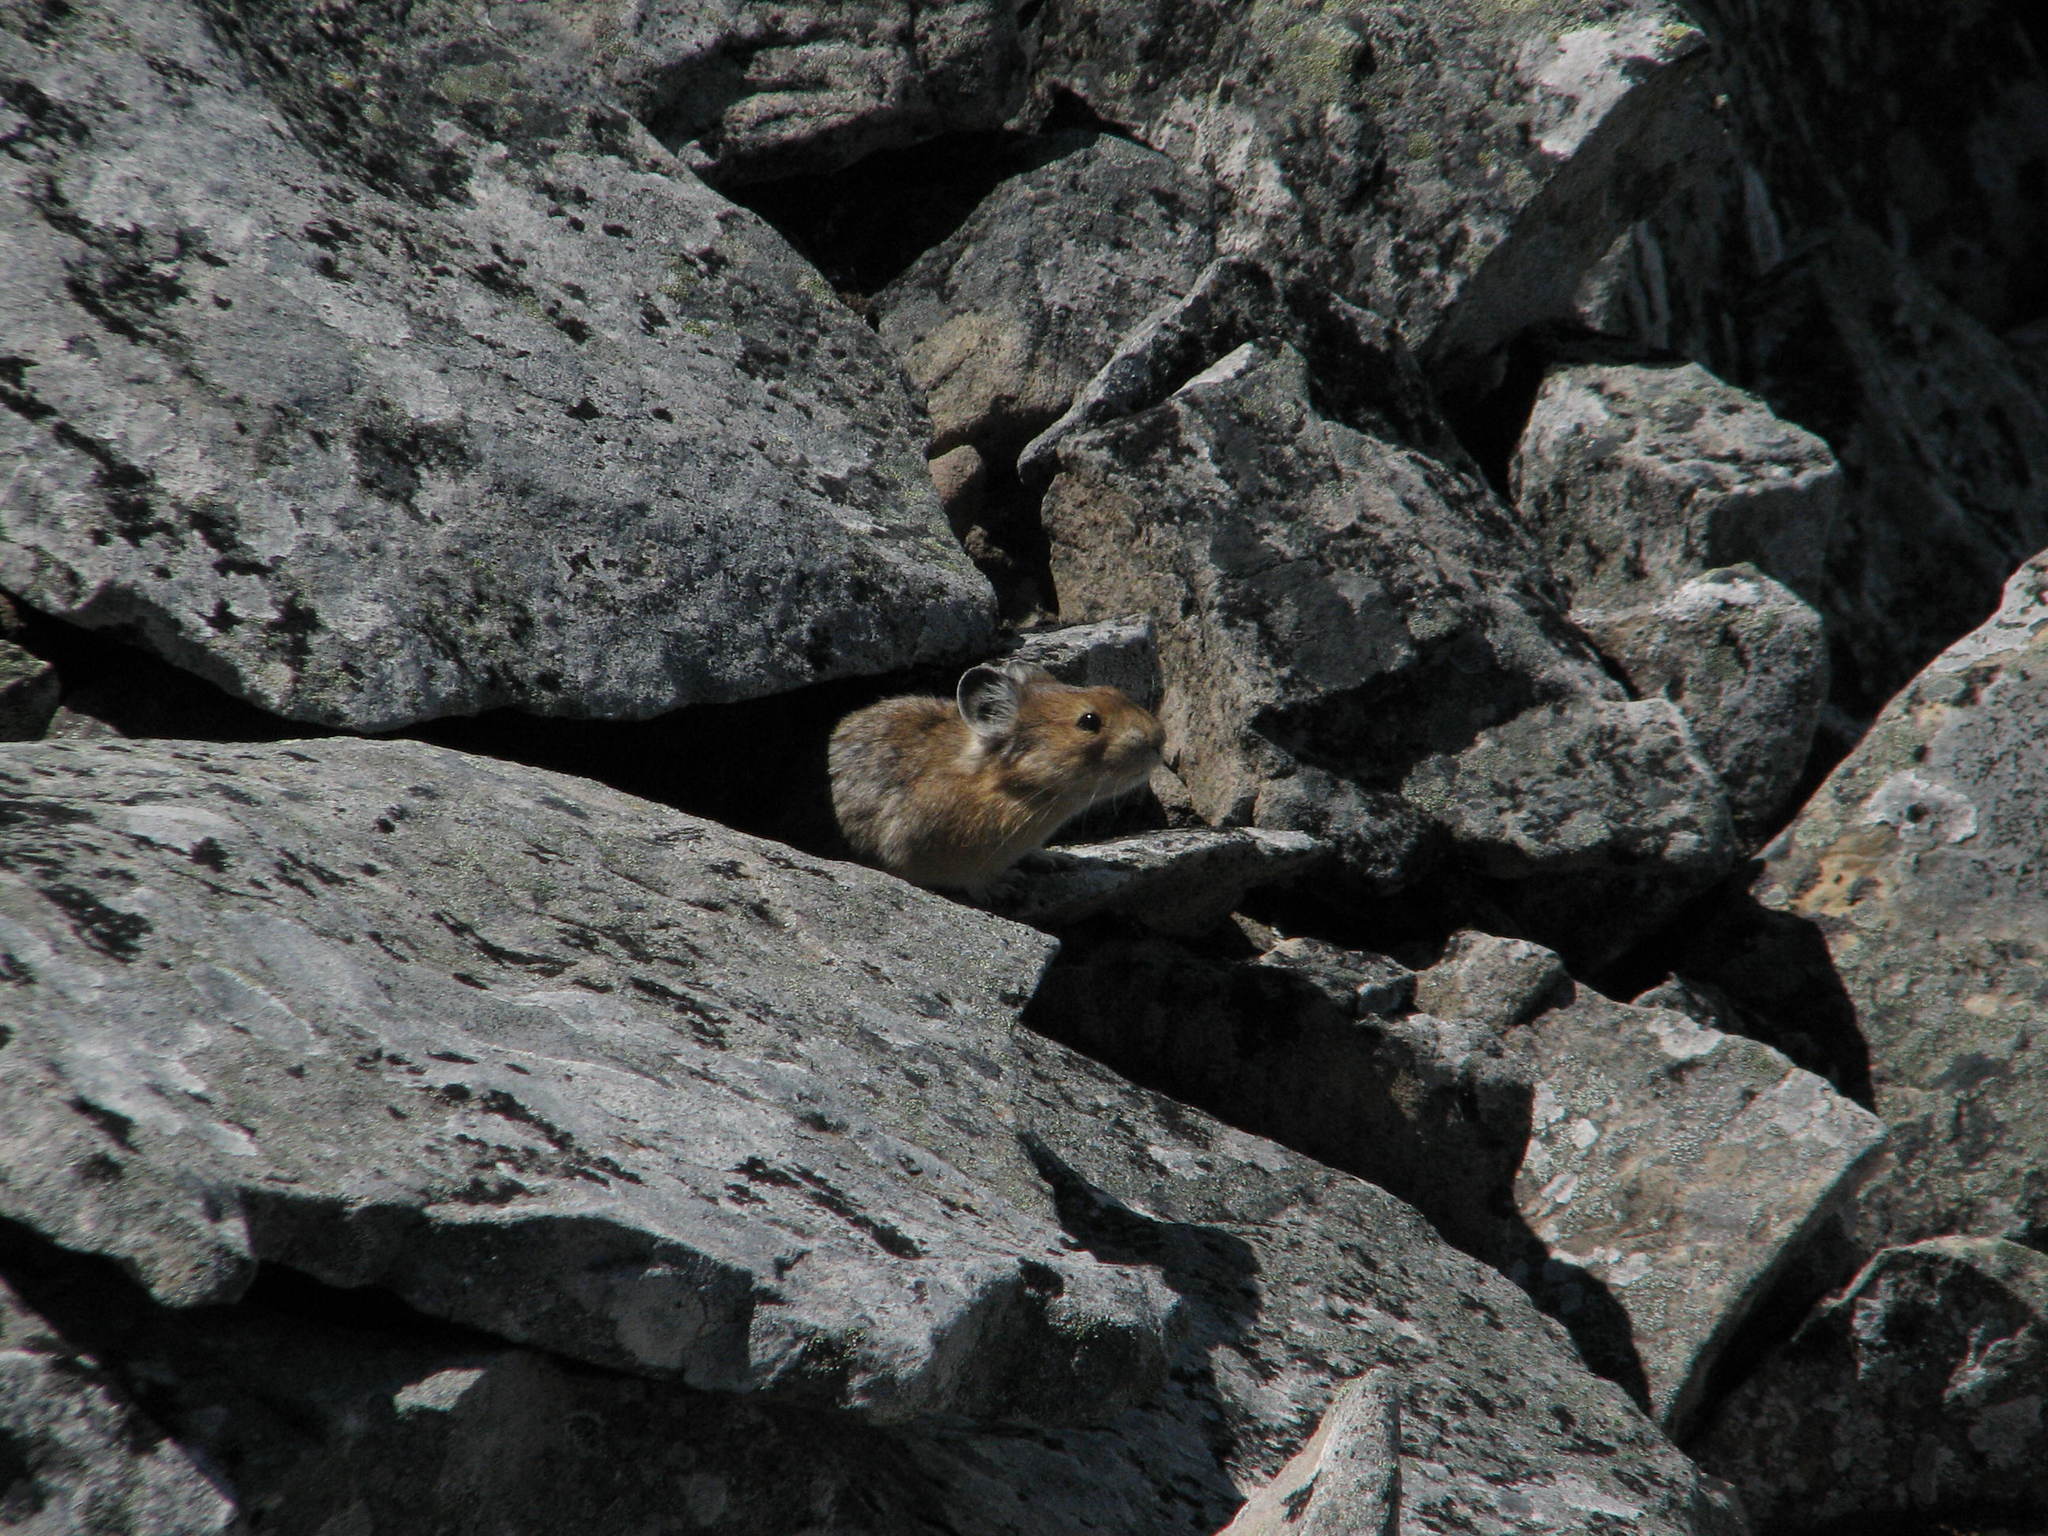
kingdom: Animalia
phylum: Chordata
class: Mammalia
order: Lagomorpha
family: Ochotonidae
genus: Ochotona
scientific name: Ochotona princeps
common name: American pika
